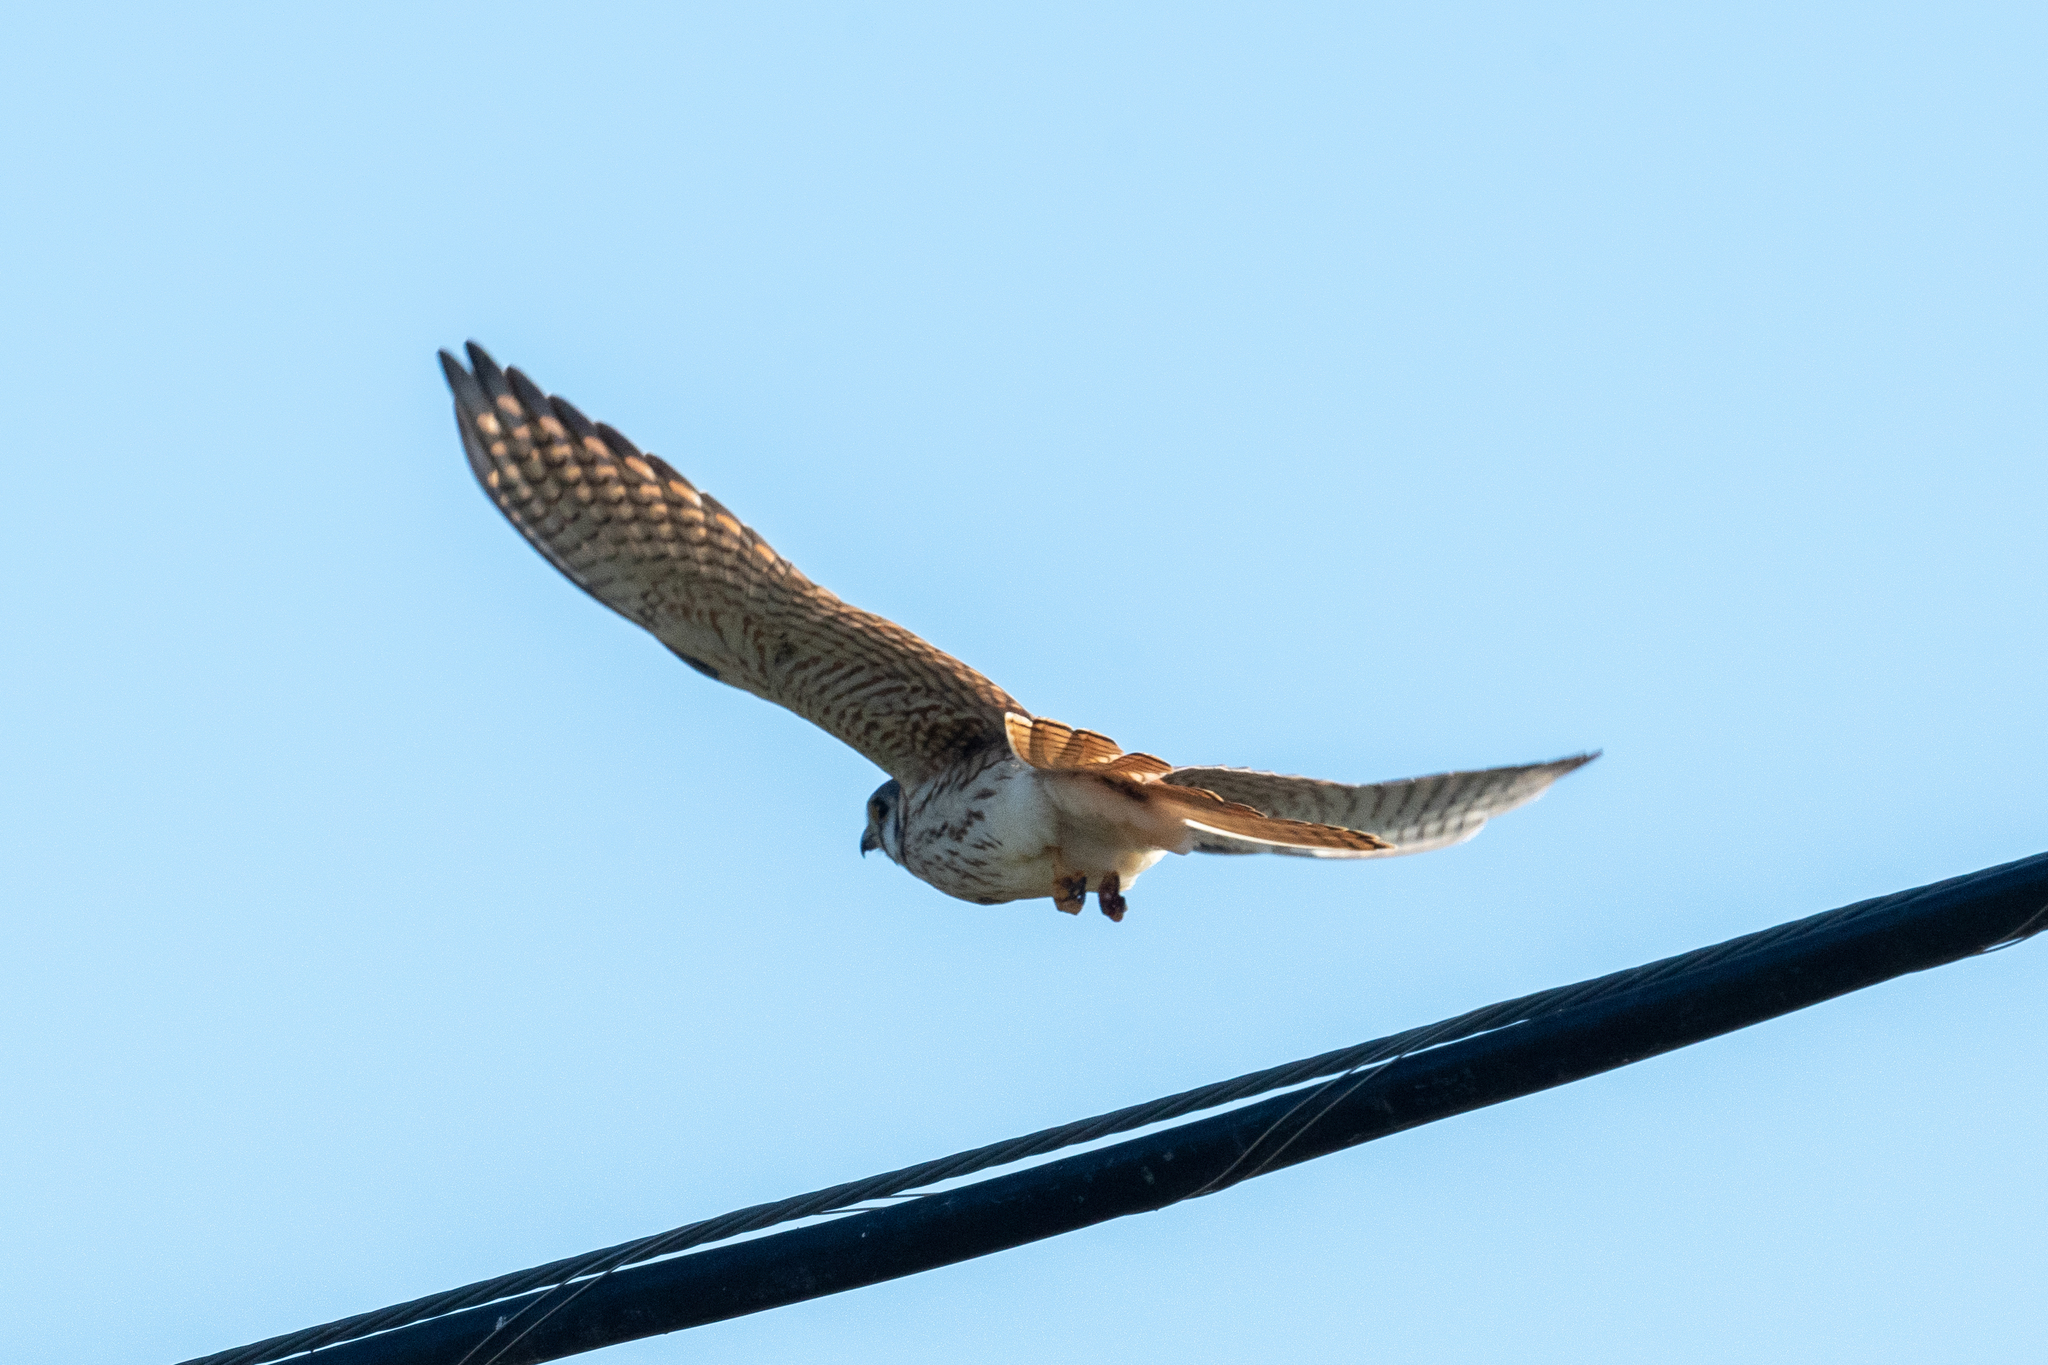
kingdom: Animalia
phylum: Chordata
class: Aves
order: Falconiformes
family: Falconidae
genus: Falco
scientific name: Falco sparverius
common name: American kestrel
